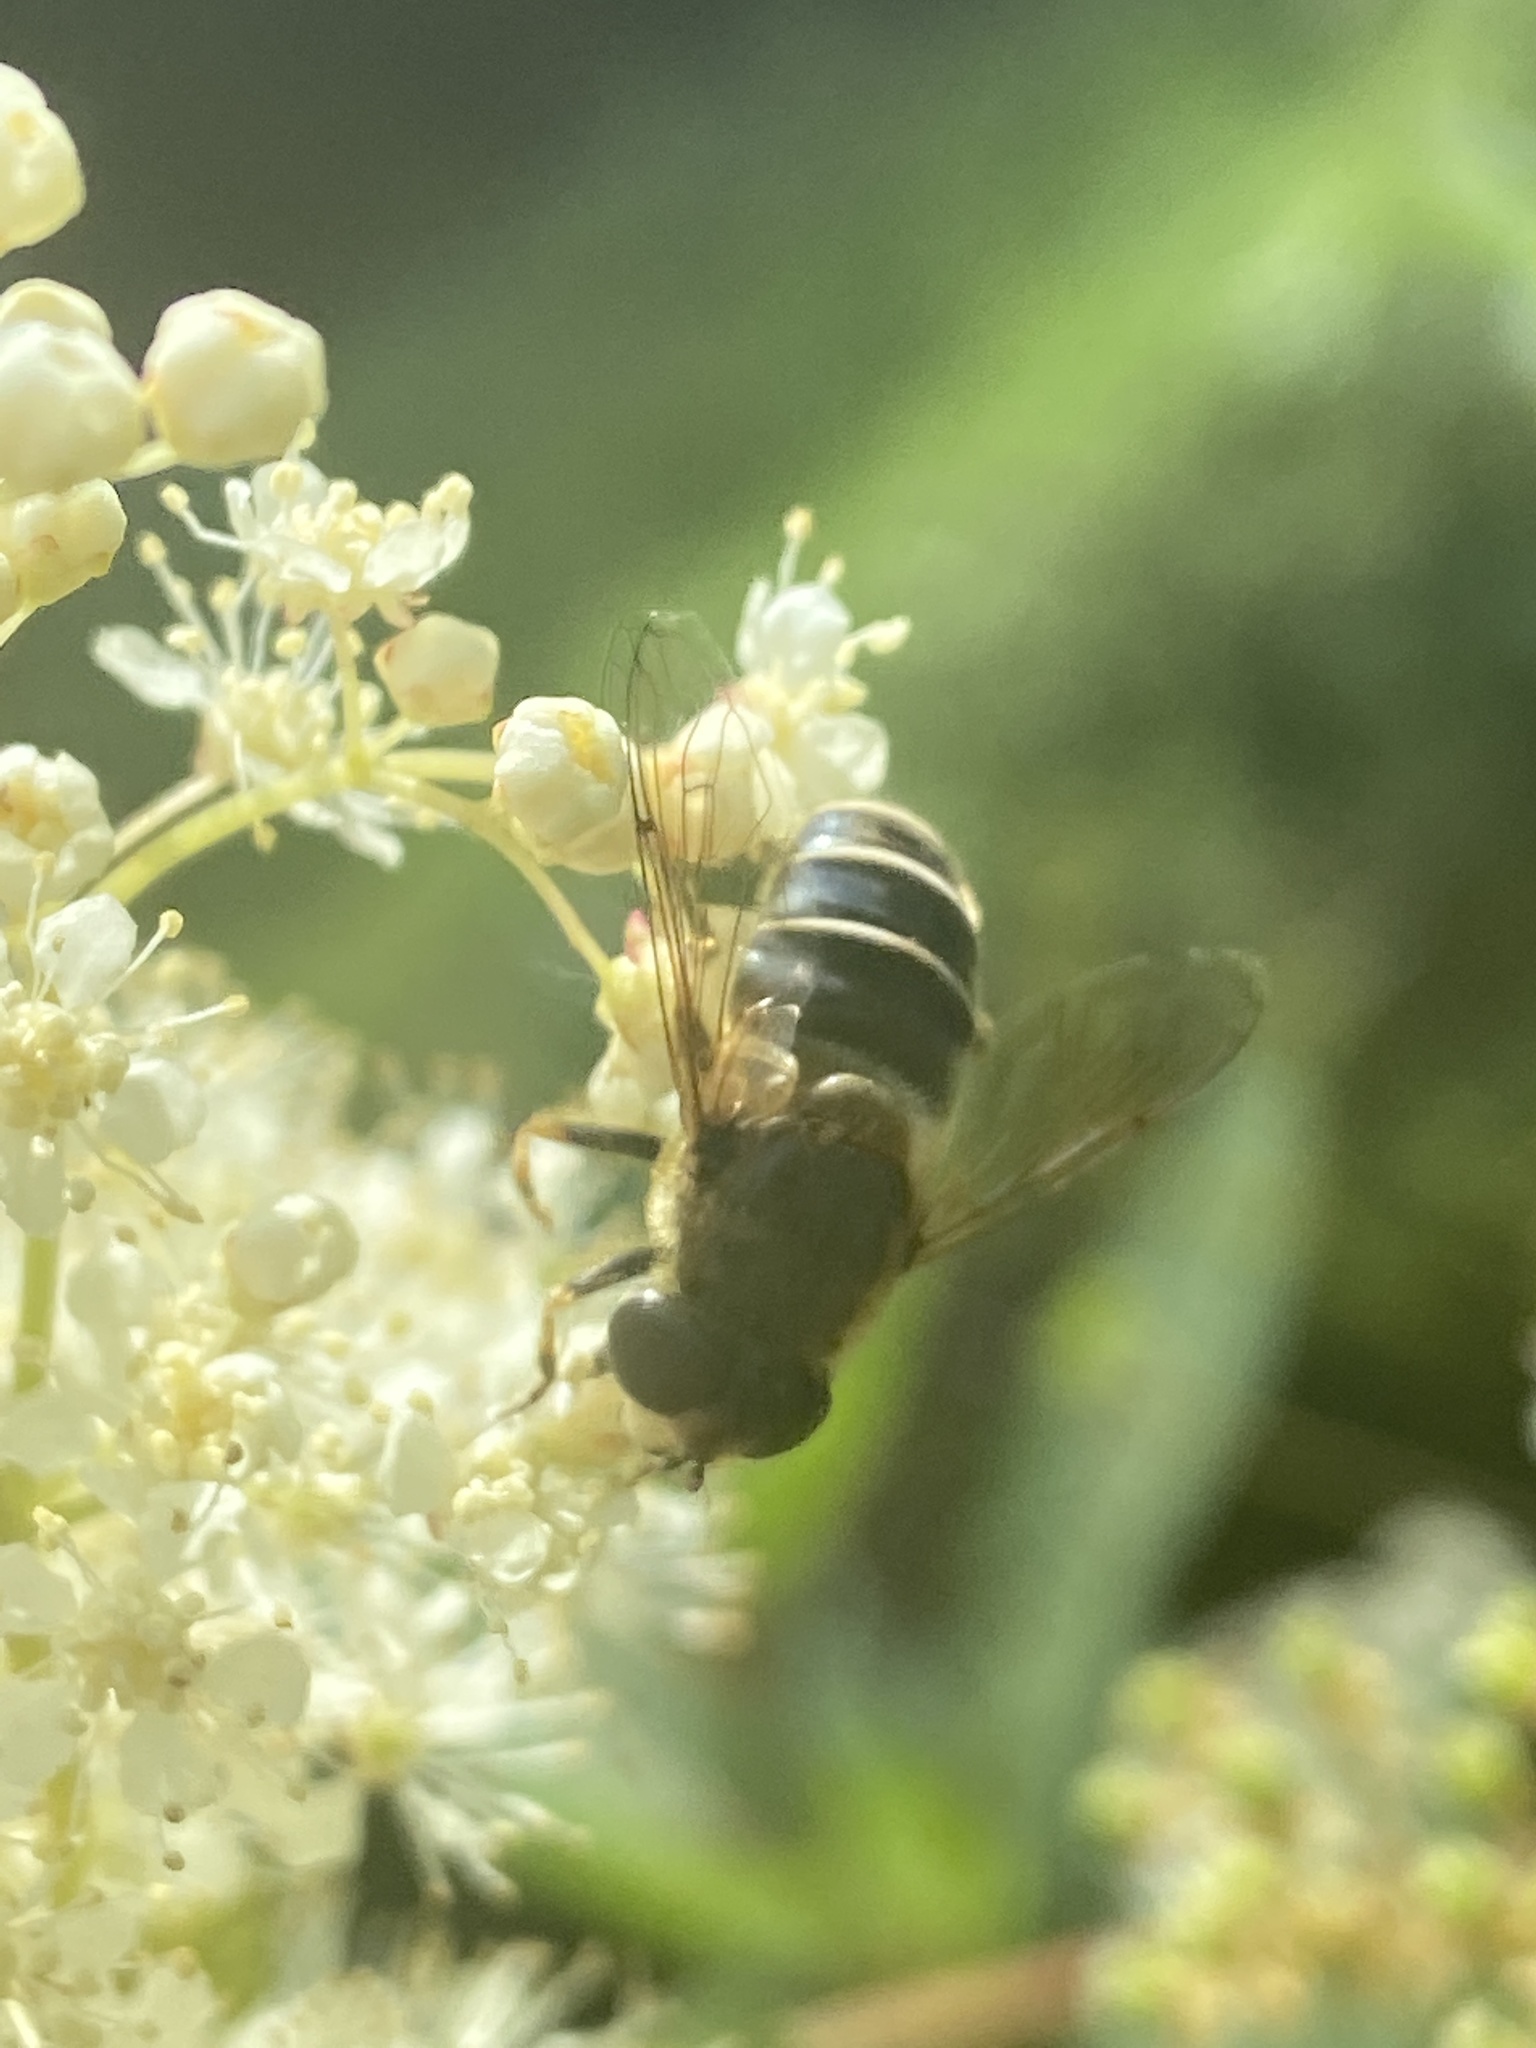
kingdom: Animalia
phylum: Arthropoda
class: Insecta
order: Diptera
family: Syrphidae
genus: Eristalis
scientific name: Eristalis nemorum
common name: Orange-spined drone fly
